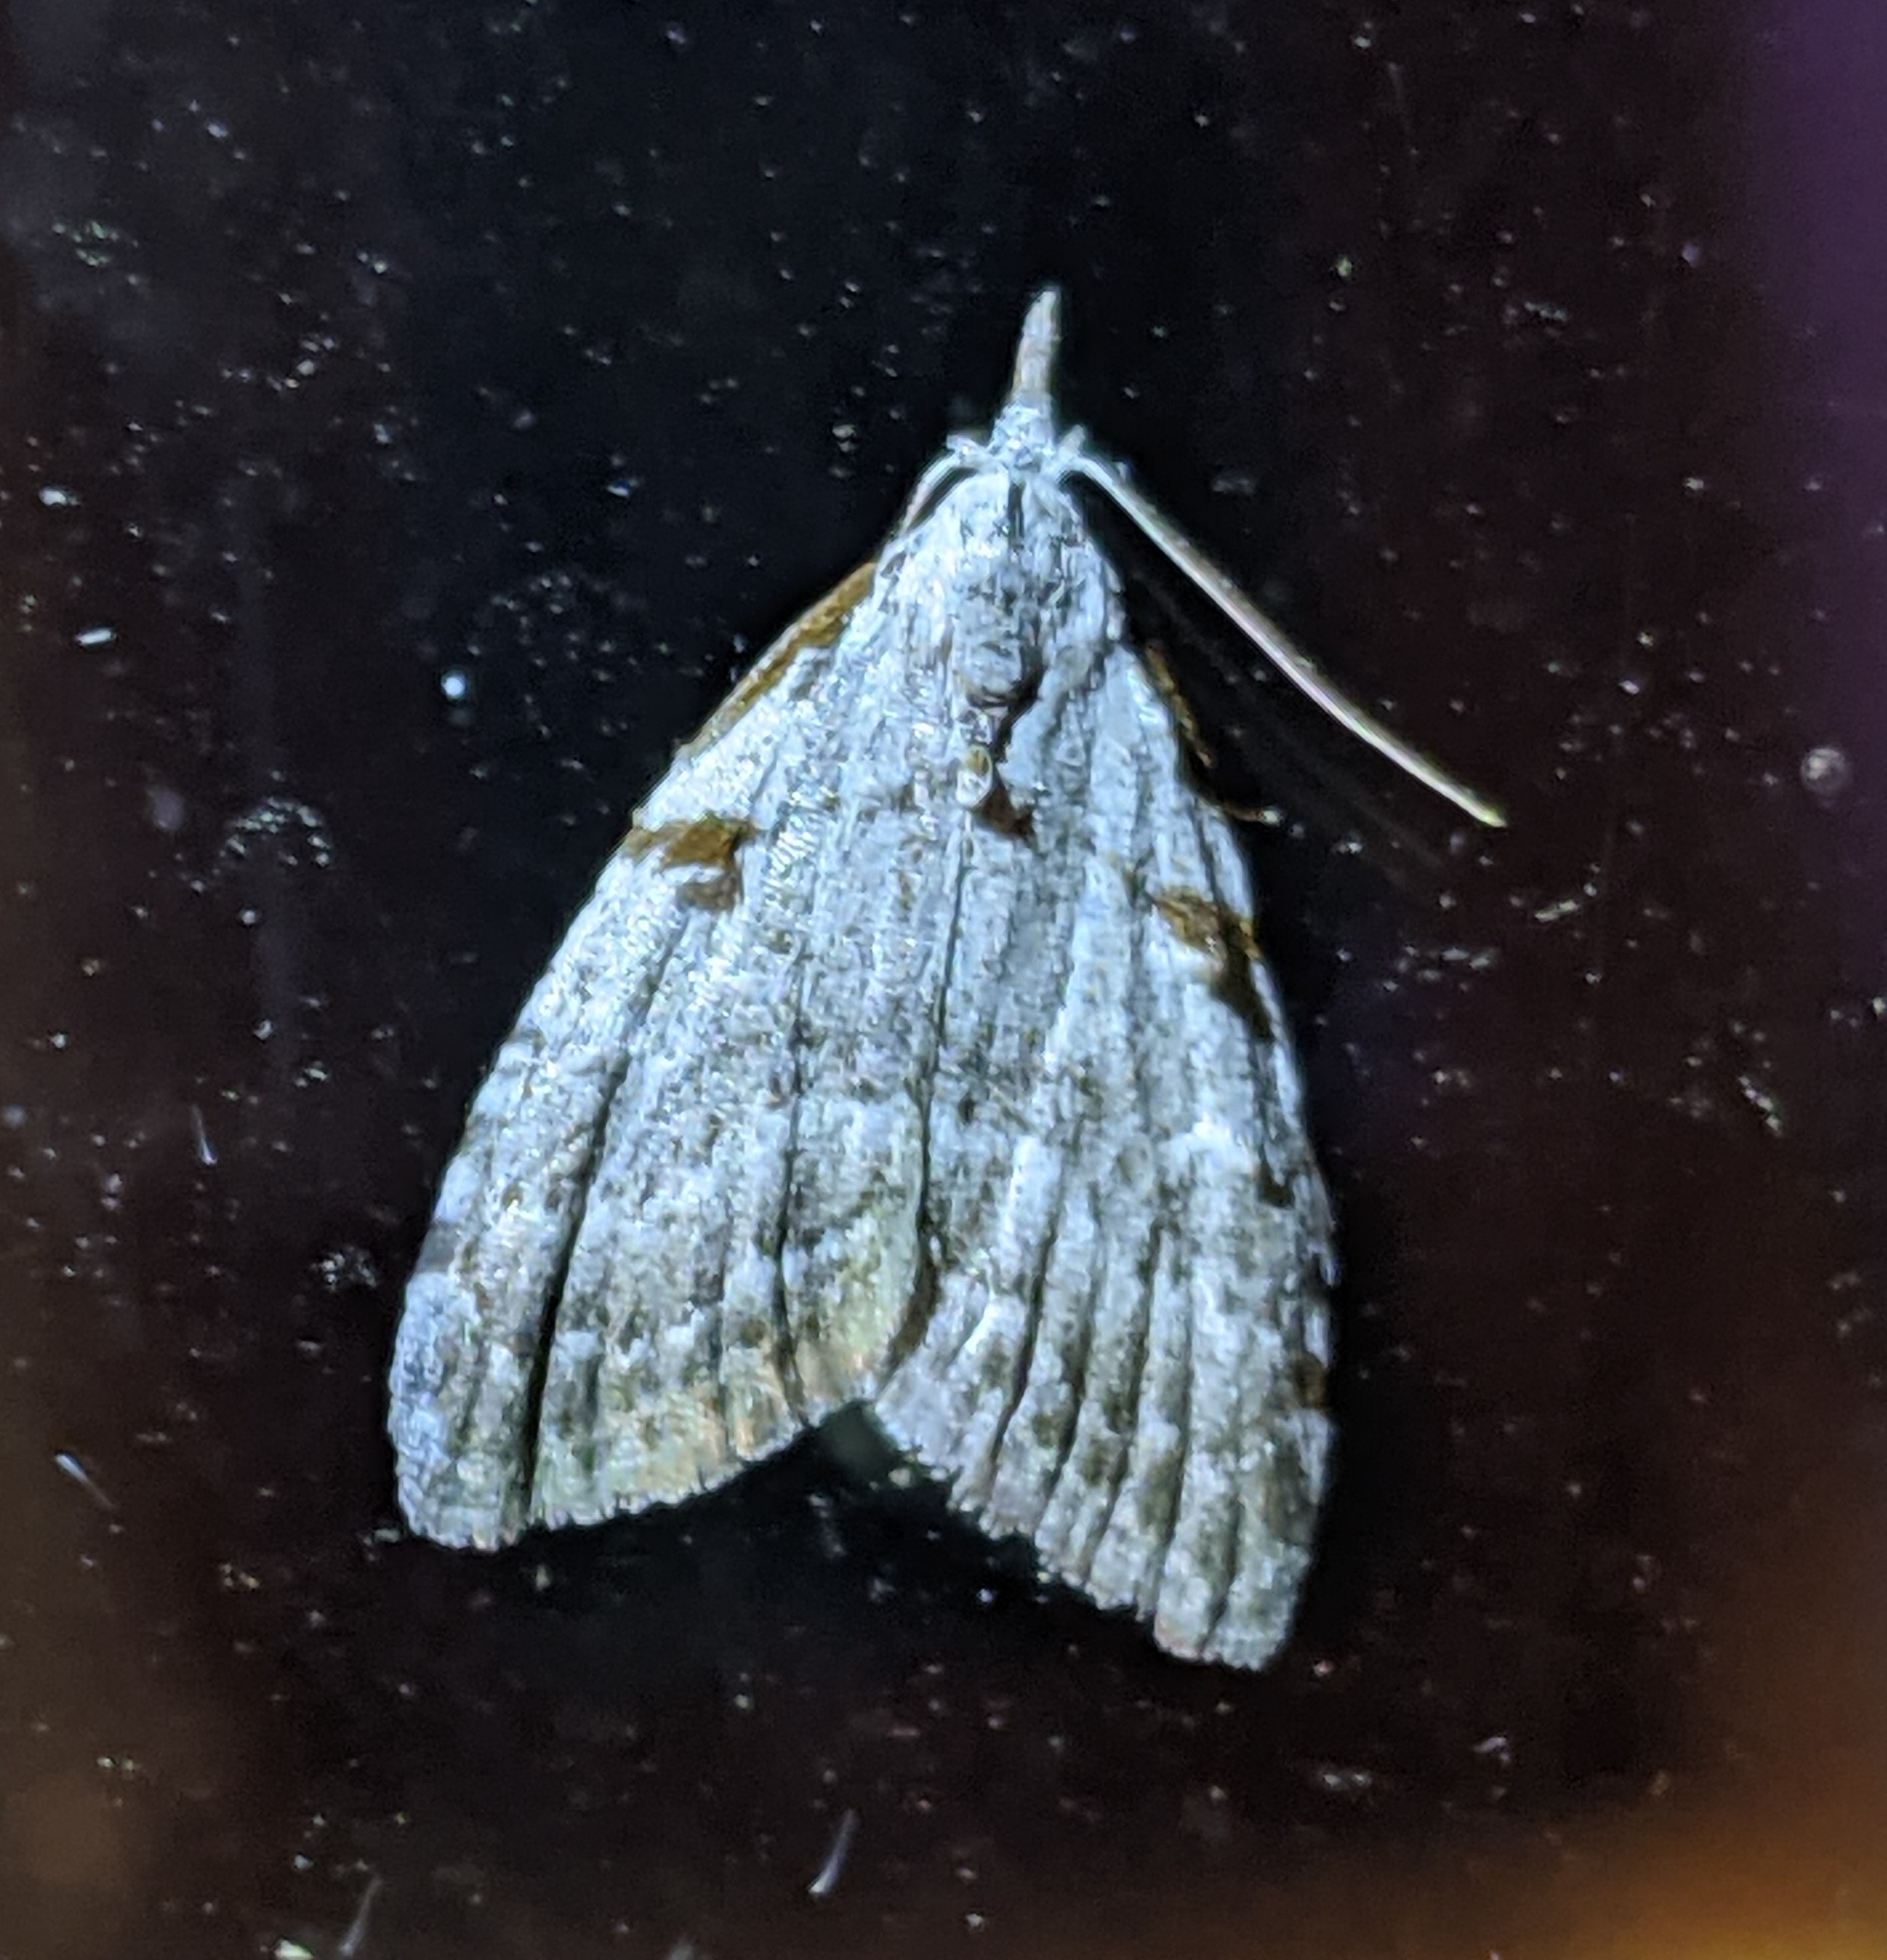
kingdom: Animalia
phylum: Arthropoda
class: Insecta
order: Lepidoptera
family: Nolidae
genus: Nola
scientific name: Nola minna
